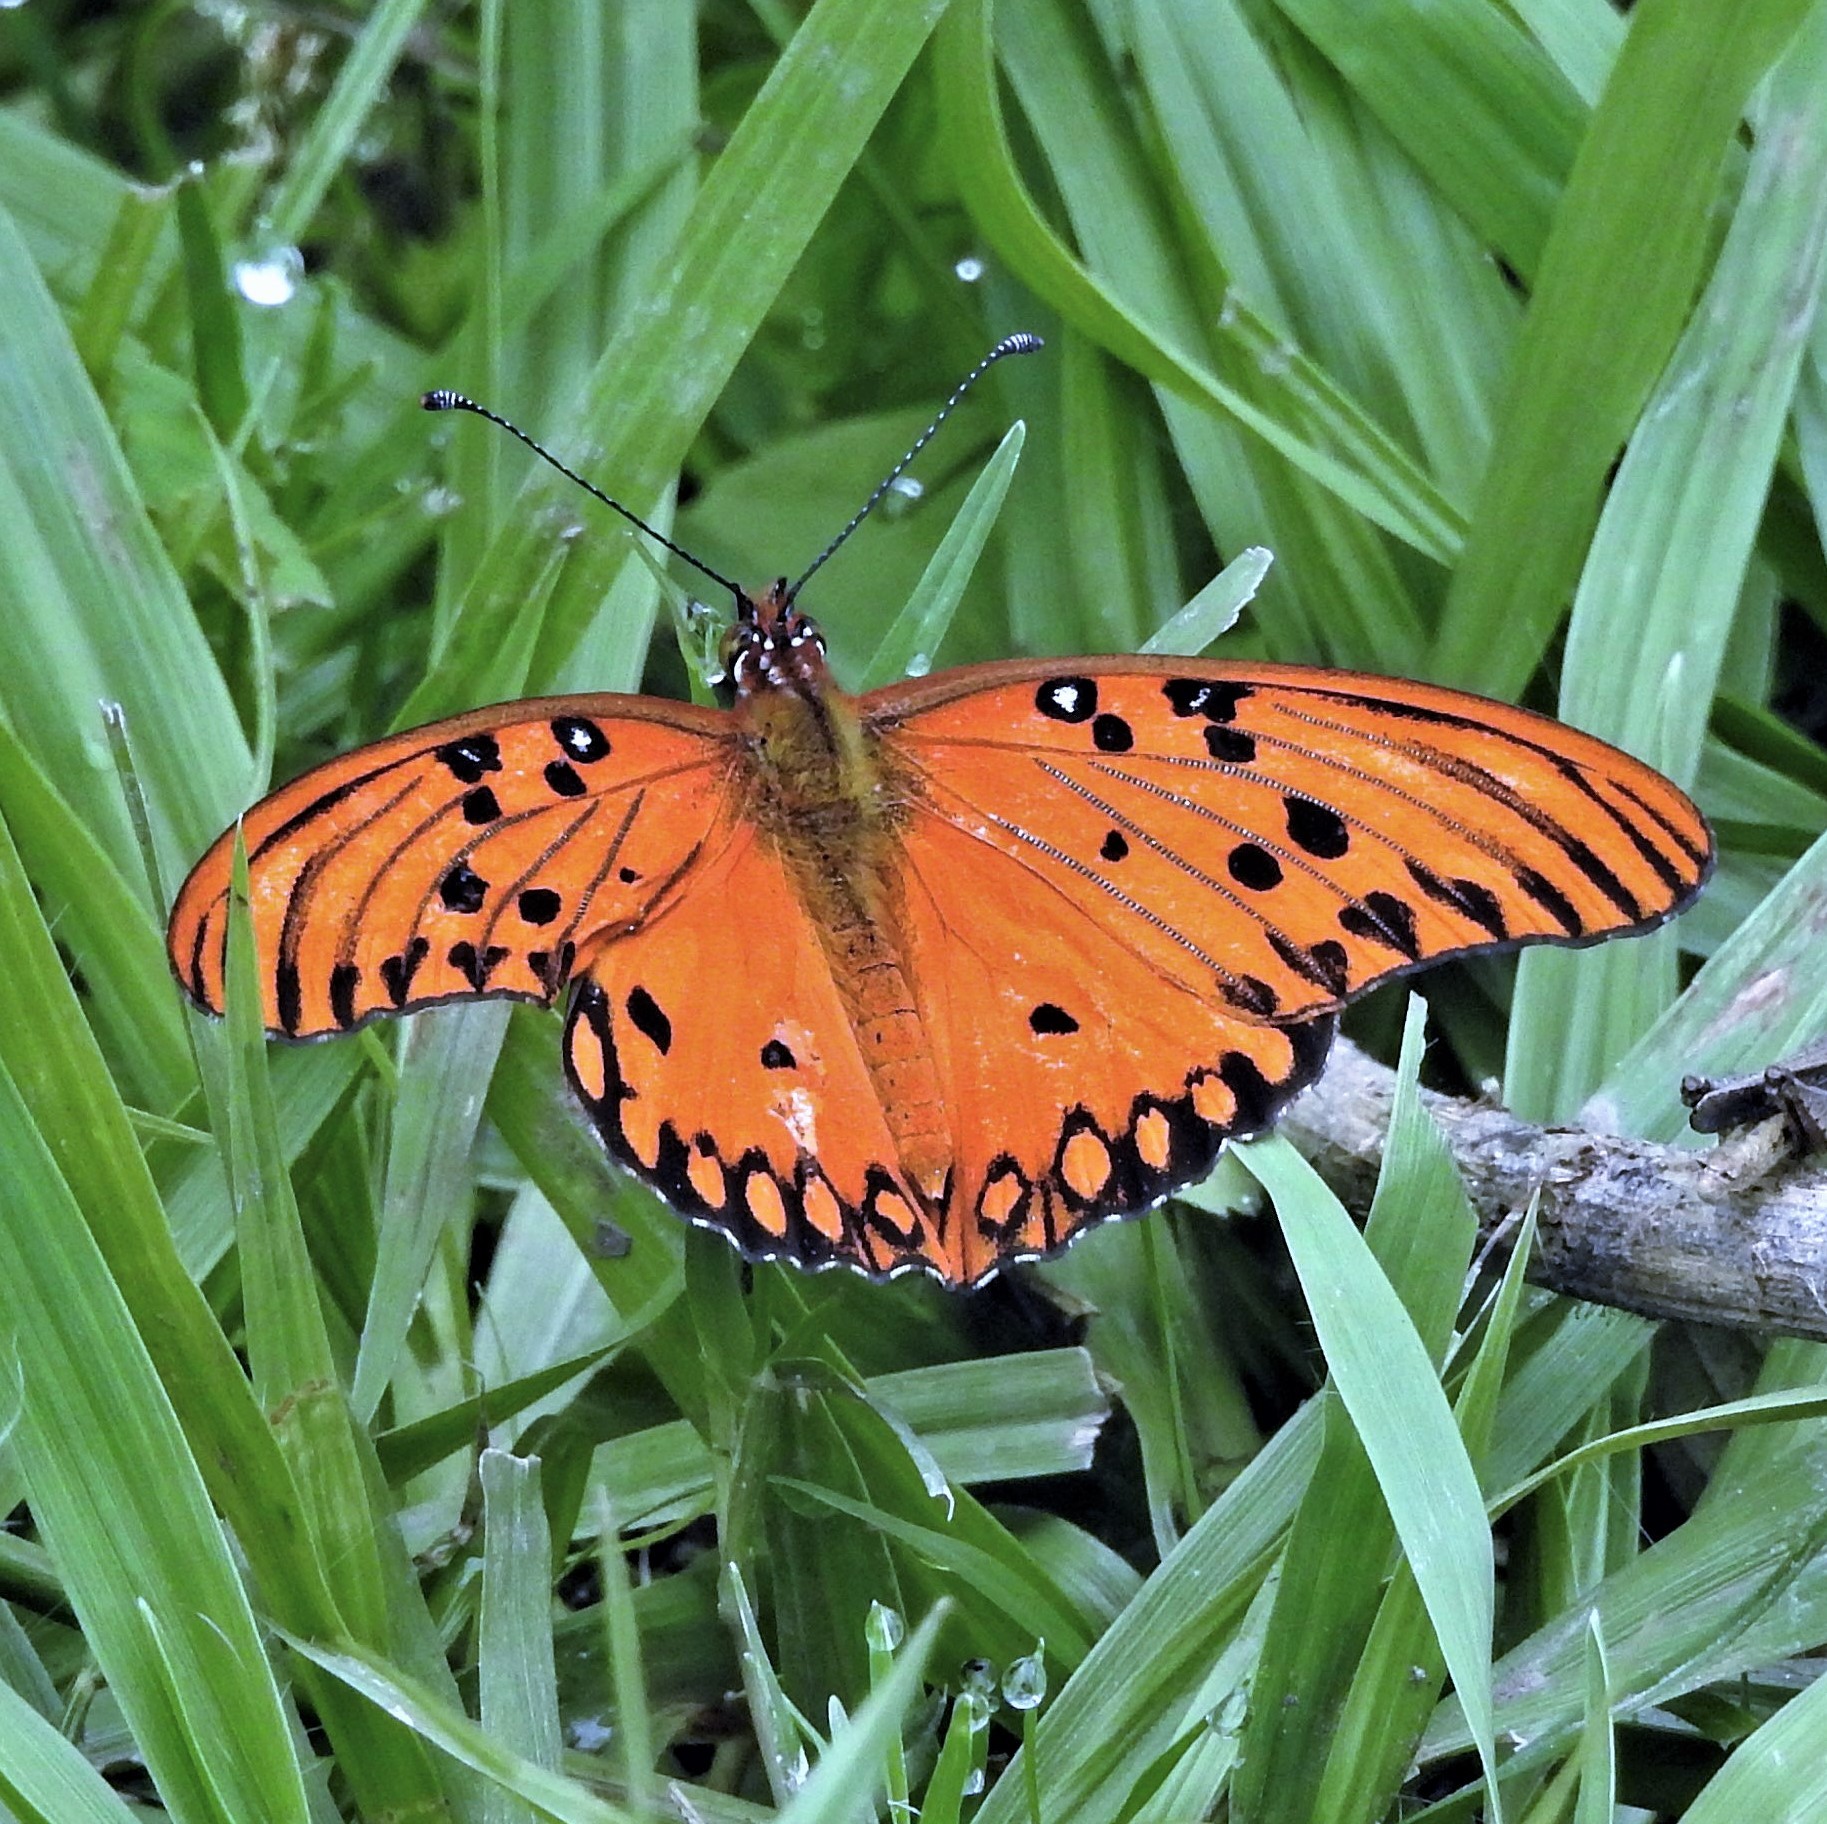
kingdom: Animalia
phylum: Arthropoda
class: Insecta
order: Lepidoptera
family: Nymphalidae
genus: Dione
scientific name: Dione vanillae
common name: Gulf fritillary
